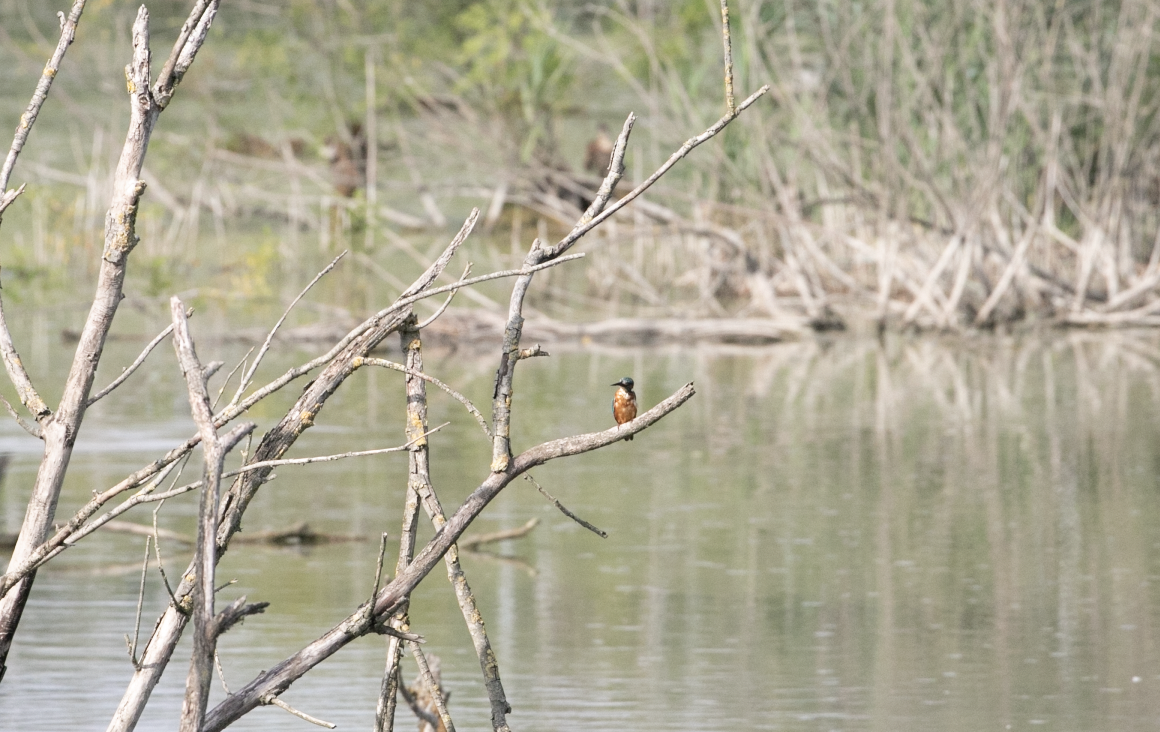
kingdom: Animalia
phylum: Chordata
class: Aves
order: Coraciiformes
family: Alcedinidae
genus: Alcedo
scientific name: Alcedo atthis
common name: Common kingfisher
